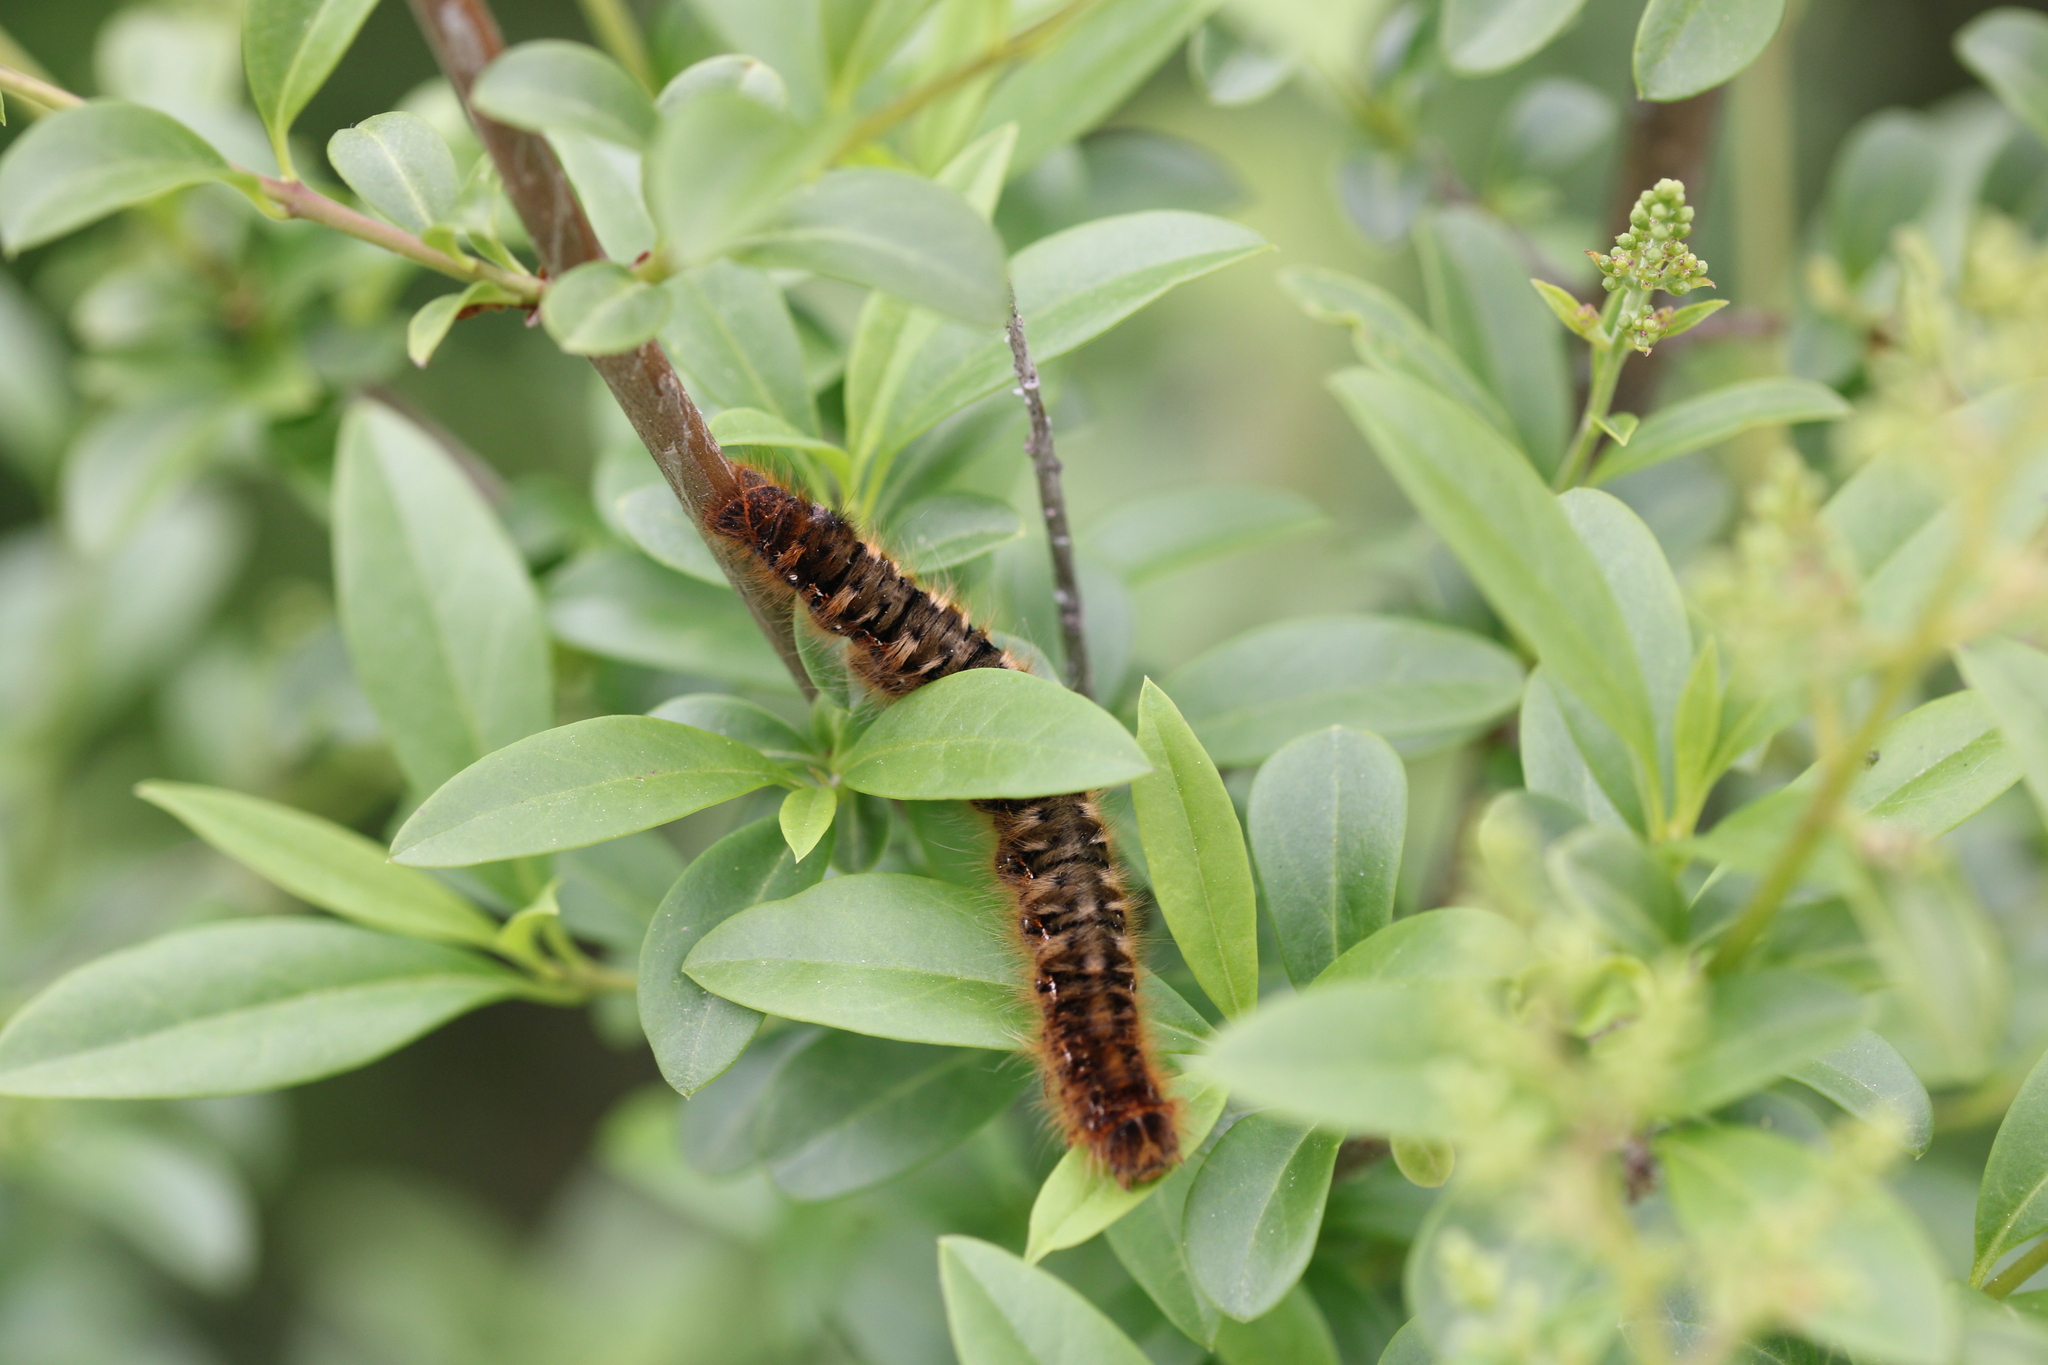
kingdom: Animalia
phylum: Arthropoda
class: Insecta
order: Lepidoptera
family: Lasiocampidae
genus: Lasiocampa
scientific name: Lasiocampa quercus
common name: Oak eggar
